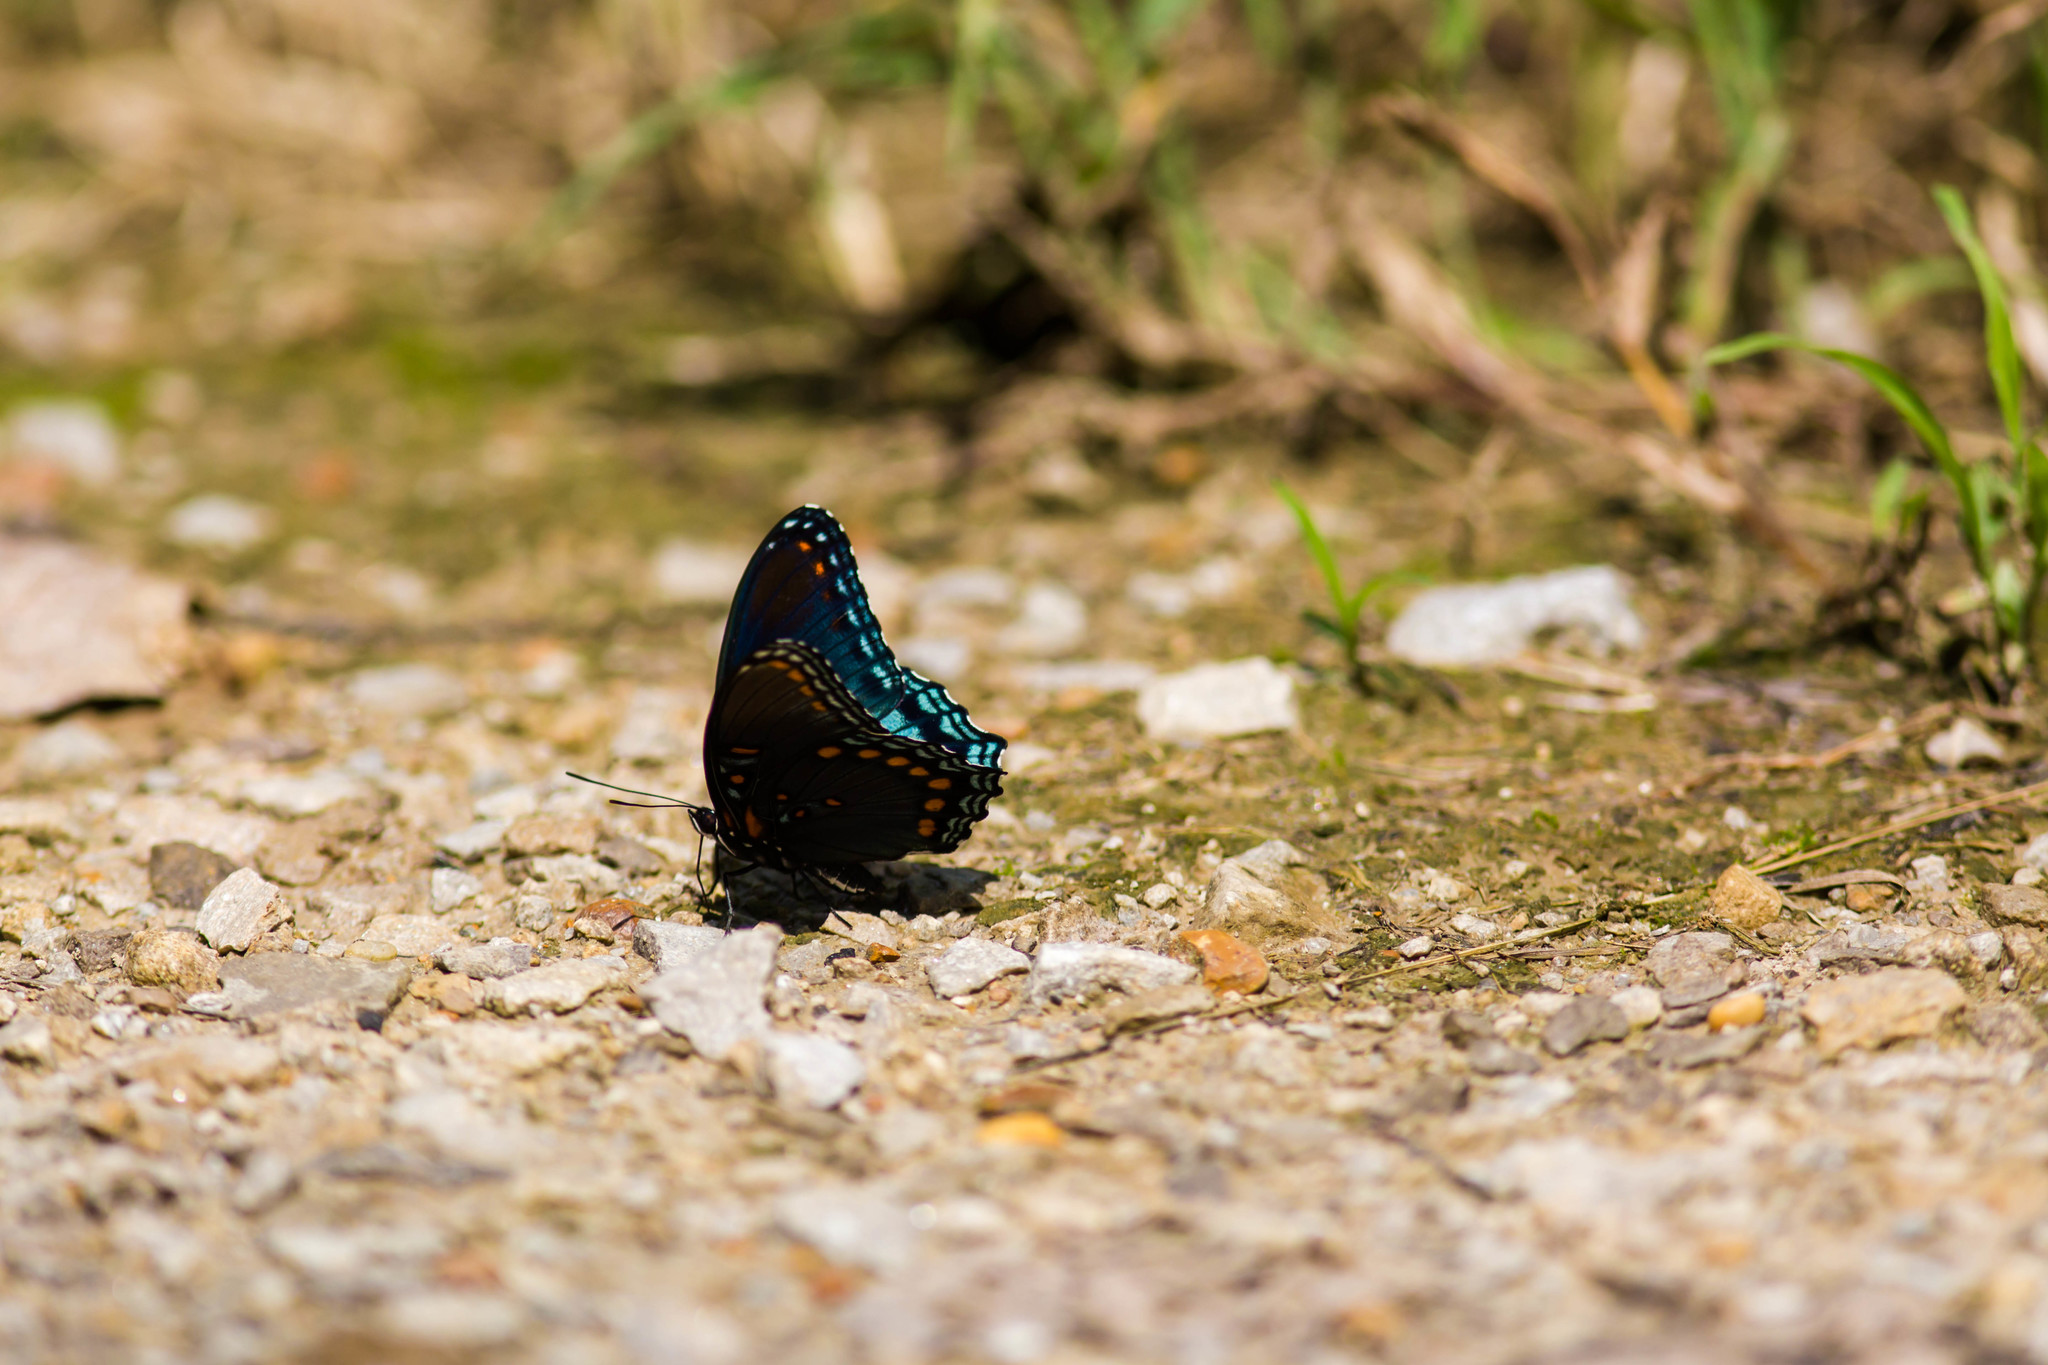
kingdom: Animalia
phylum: Arthropoda
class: Insecta
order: Lepidoptera
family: Nymphalidae
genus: Limenitis
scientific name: Limenitis astyanax
